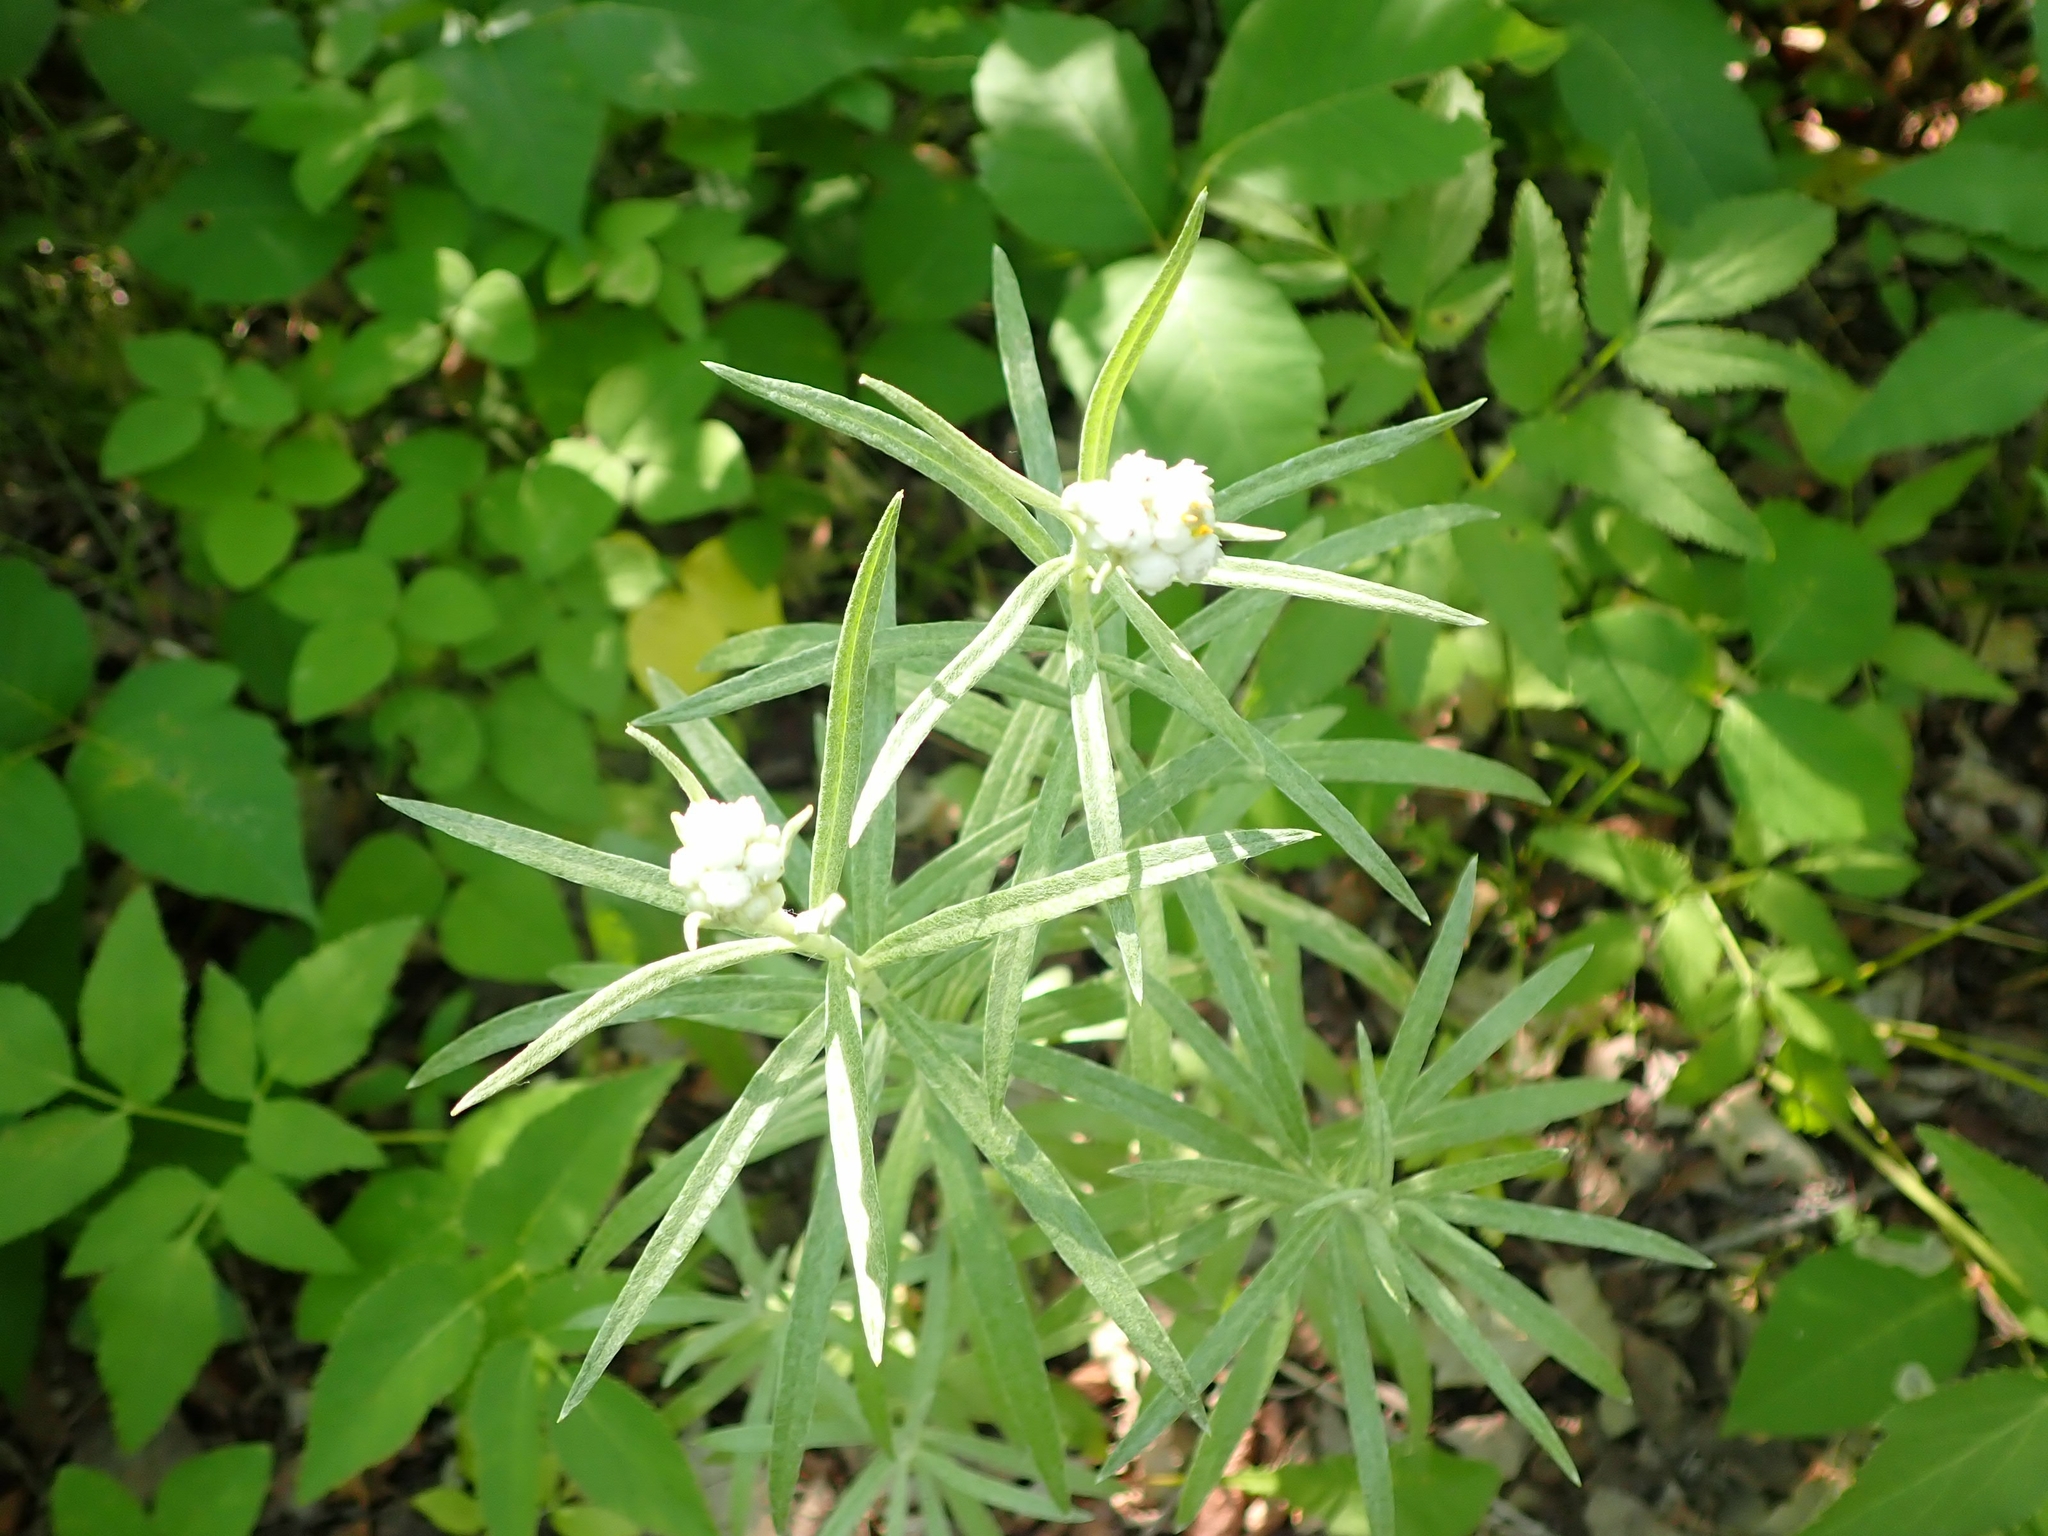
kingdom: Plantae
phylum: Tracheophyta
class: Magnoliopsida
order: Asterales
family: Asteraceae
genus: Anaphalis
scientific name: Anaphalis margaritacea
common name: Pearly everlasting
